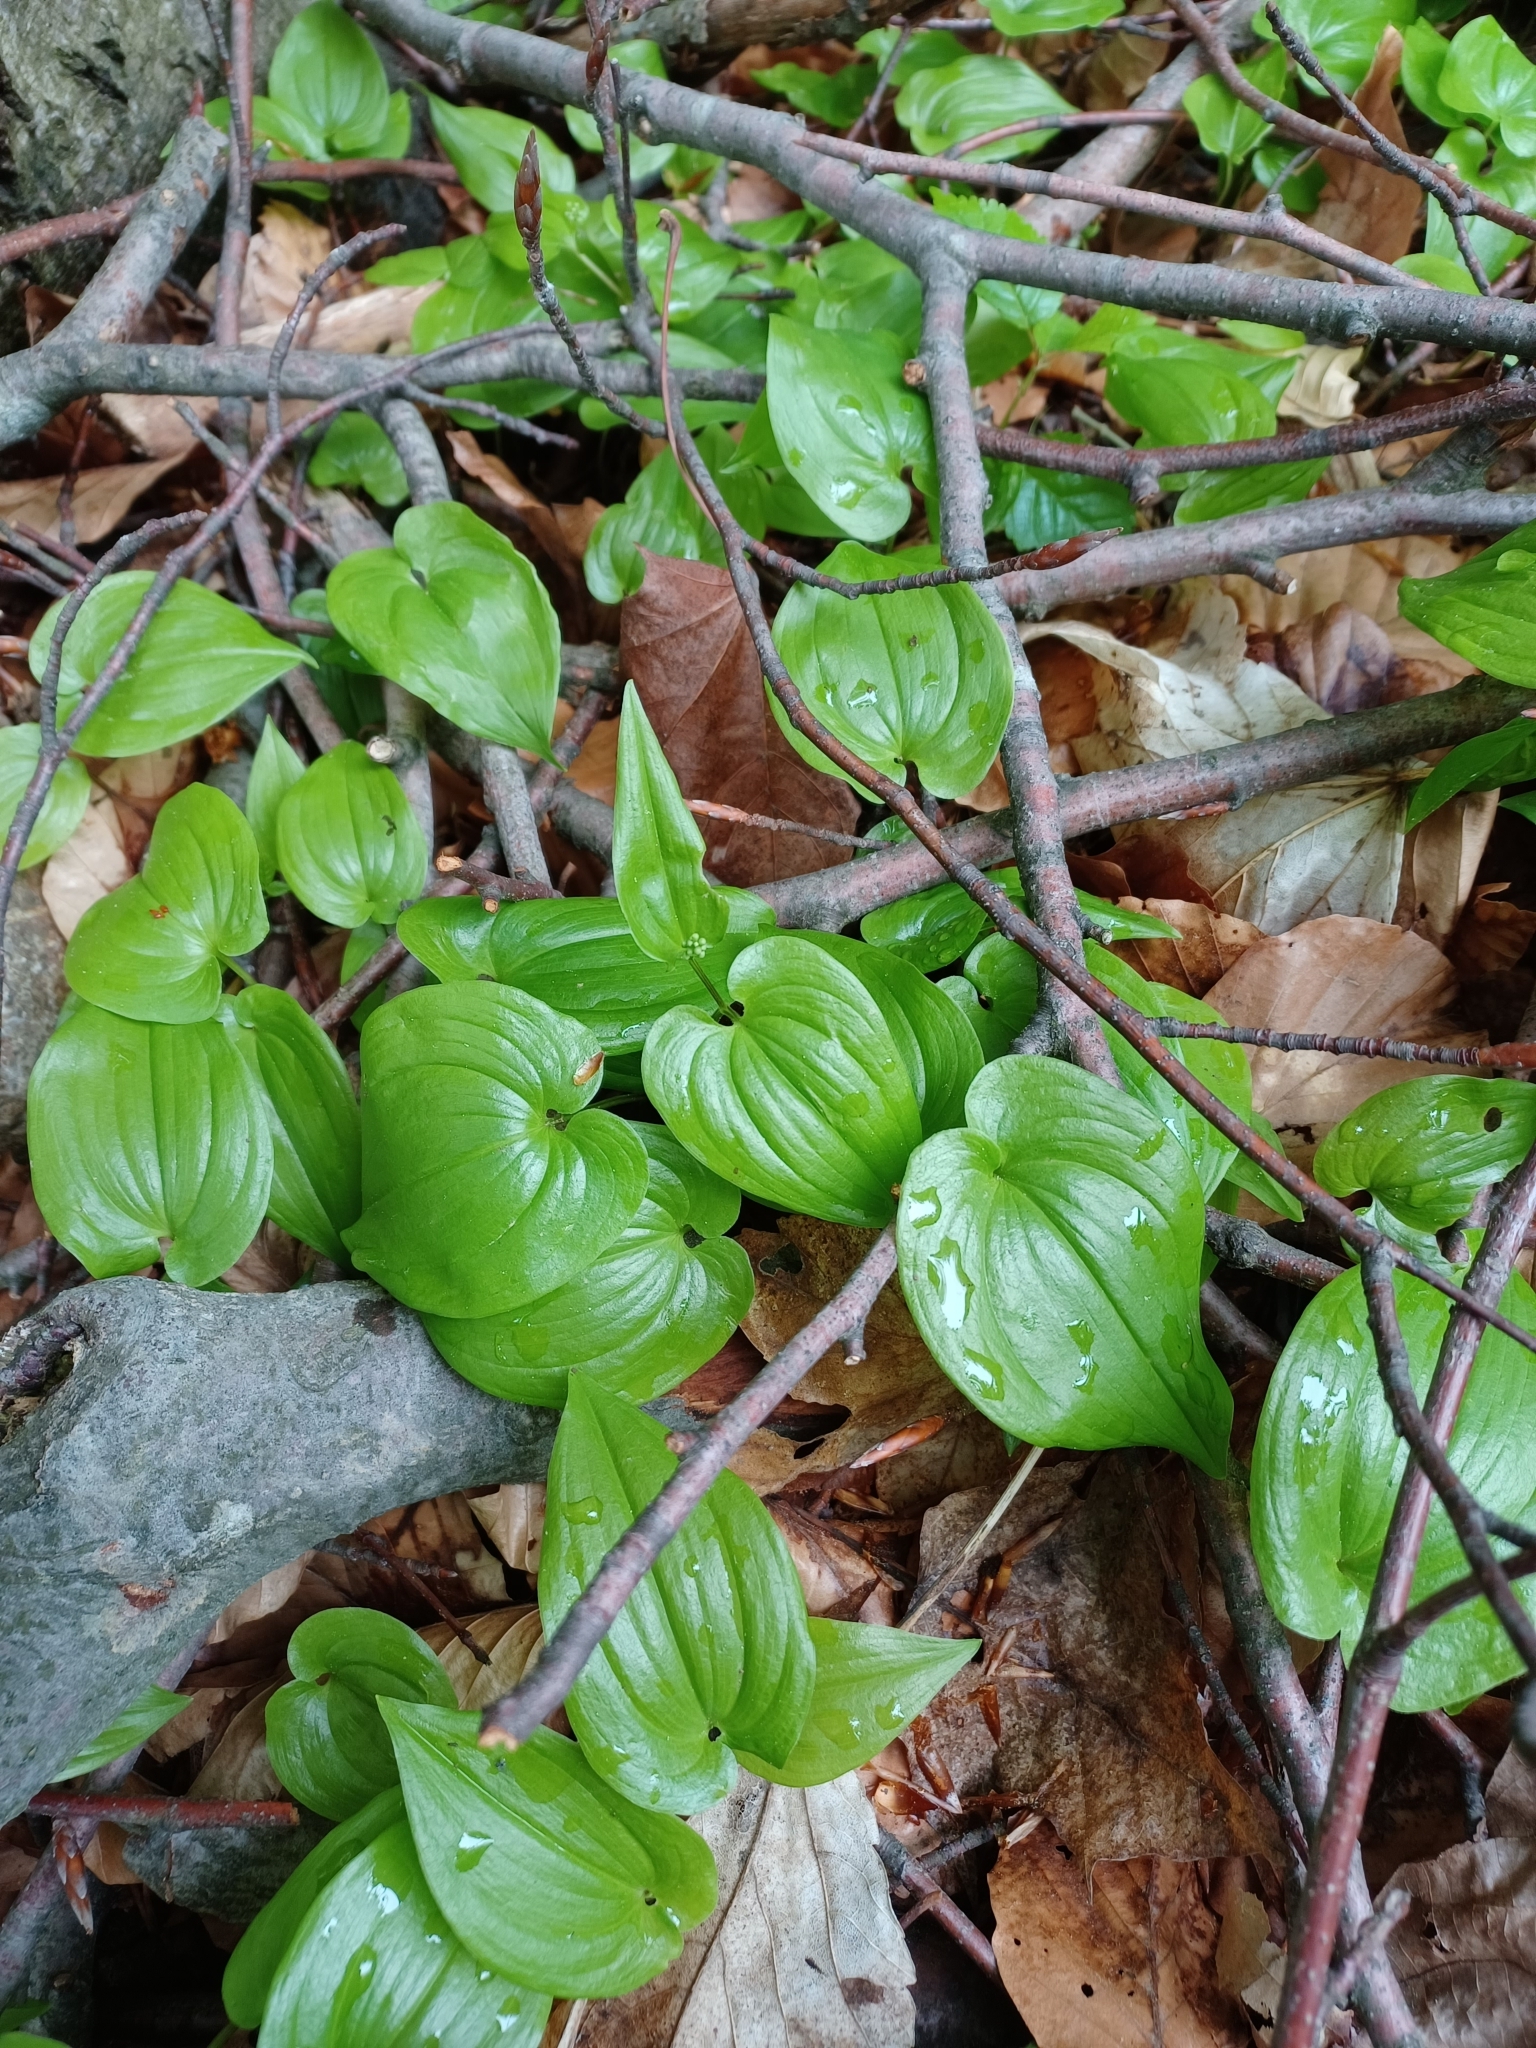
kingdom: Plantae
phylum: Tracheophyta
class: Liliopsida
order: Asparagales
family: Asparagaceae
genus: Maianthemum
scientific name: Maianthemum bifolium
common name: May lily
